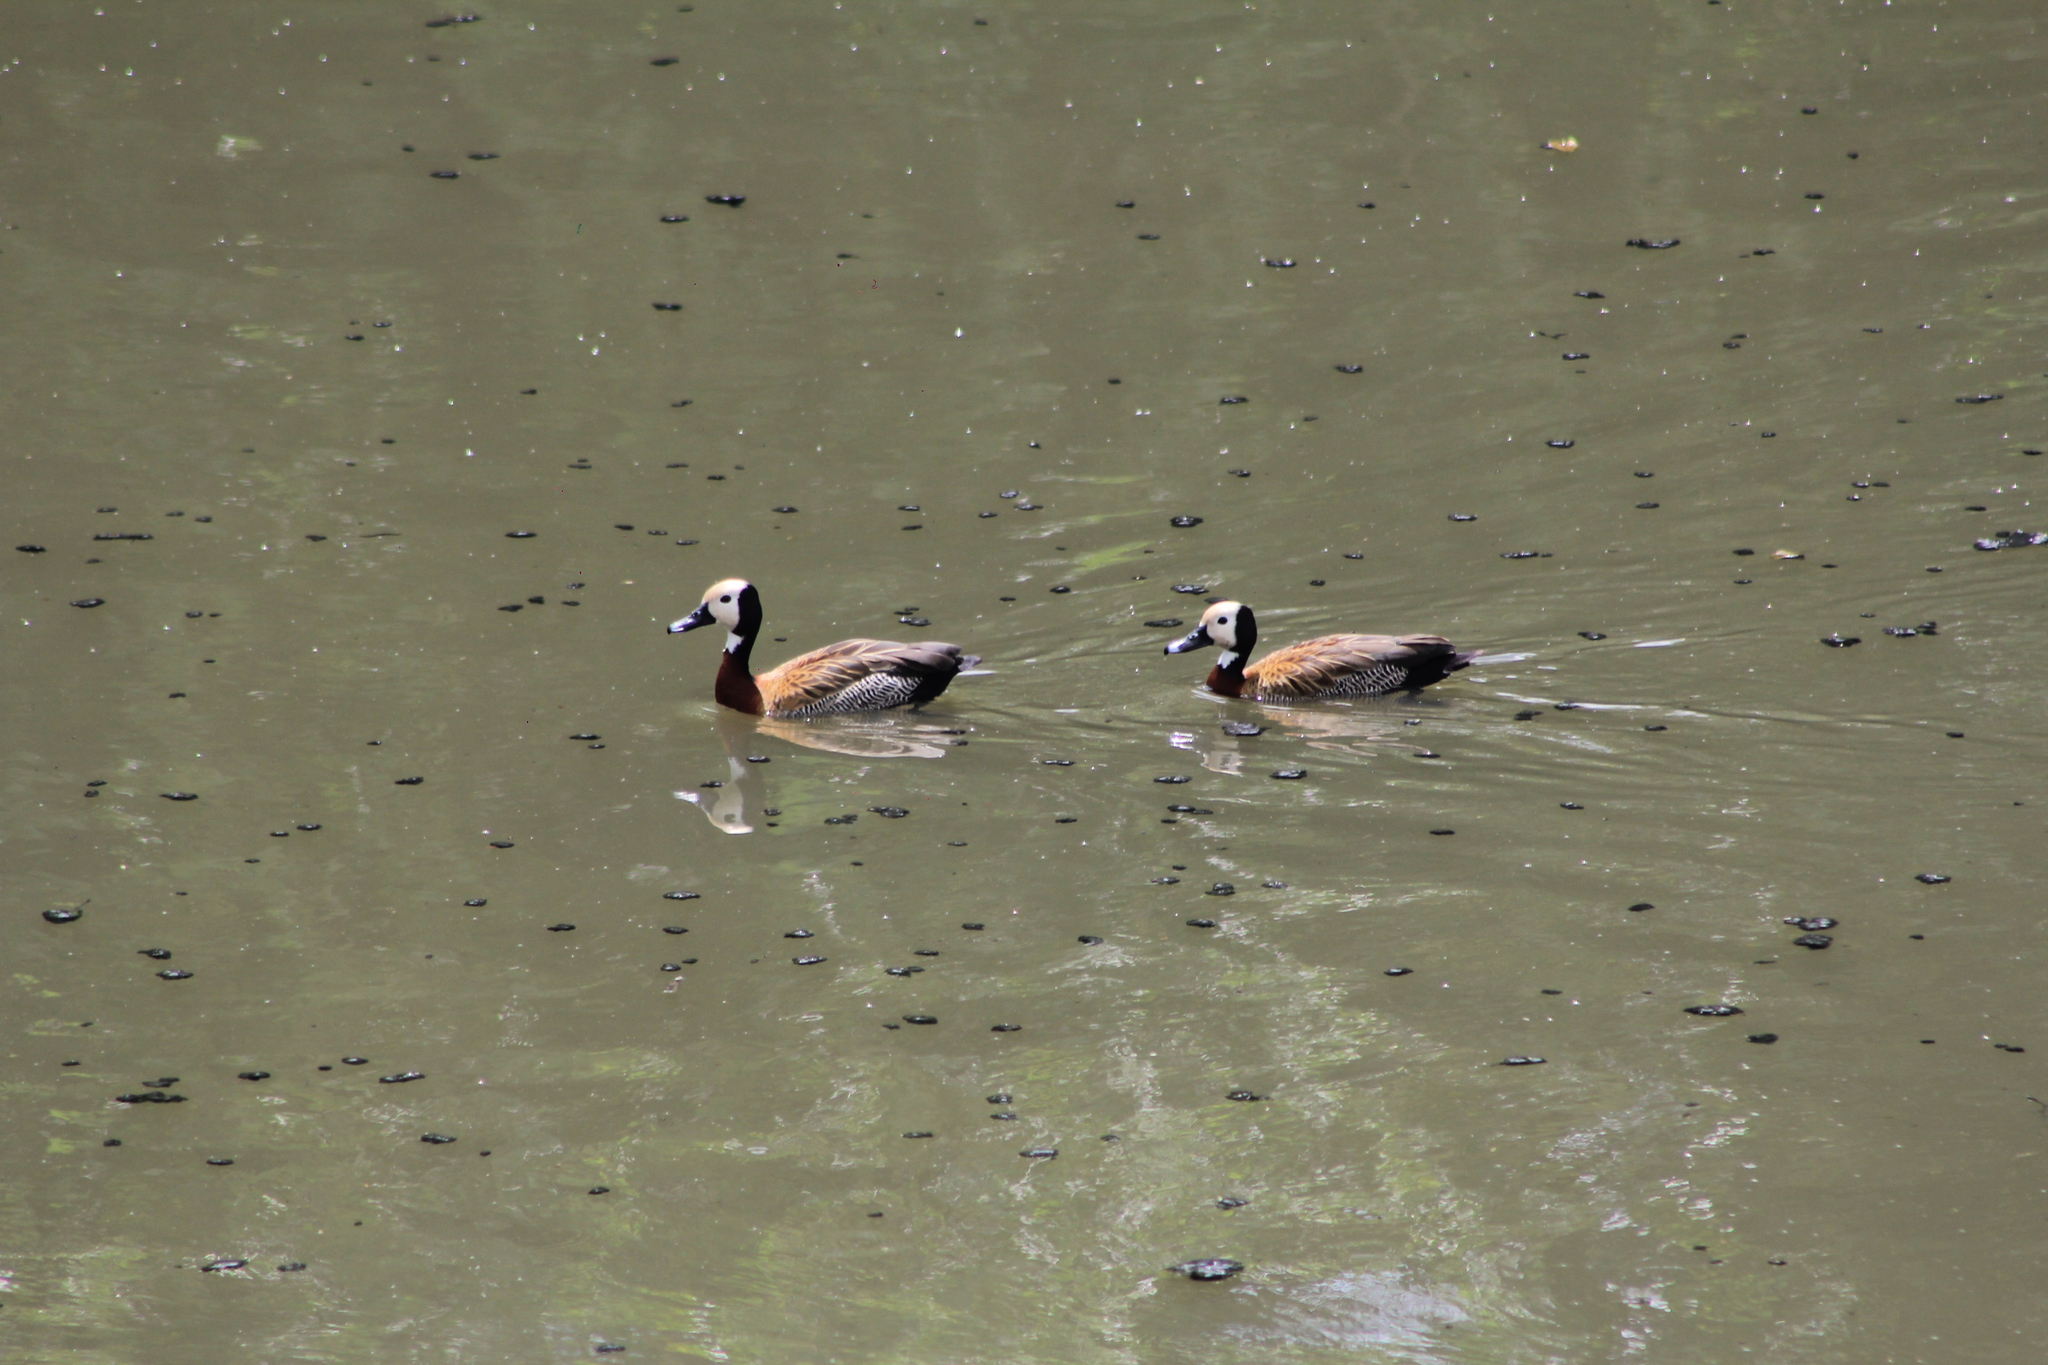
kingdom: Animalia
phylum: Chordata
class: Aves
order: Anseriformes
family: Anatidae
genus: Dendrocygna
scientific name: Dendrocygna viduata
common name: White-faced whistling duck
